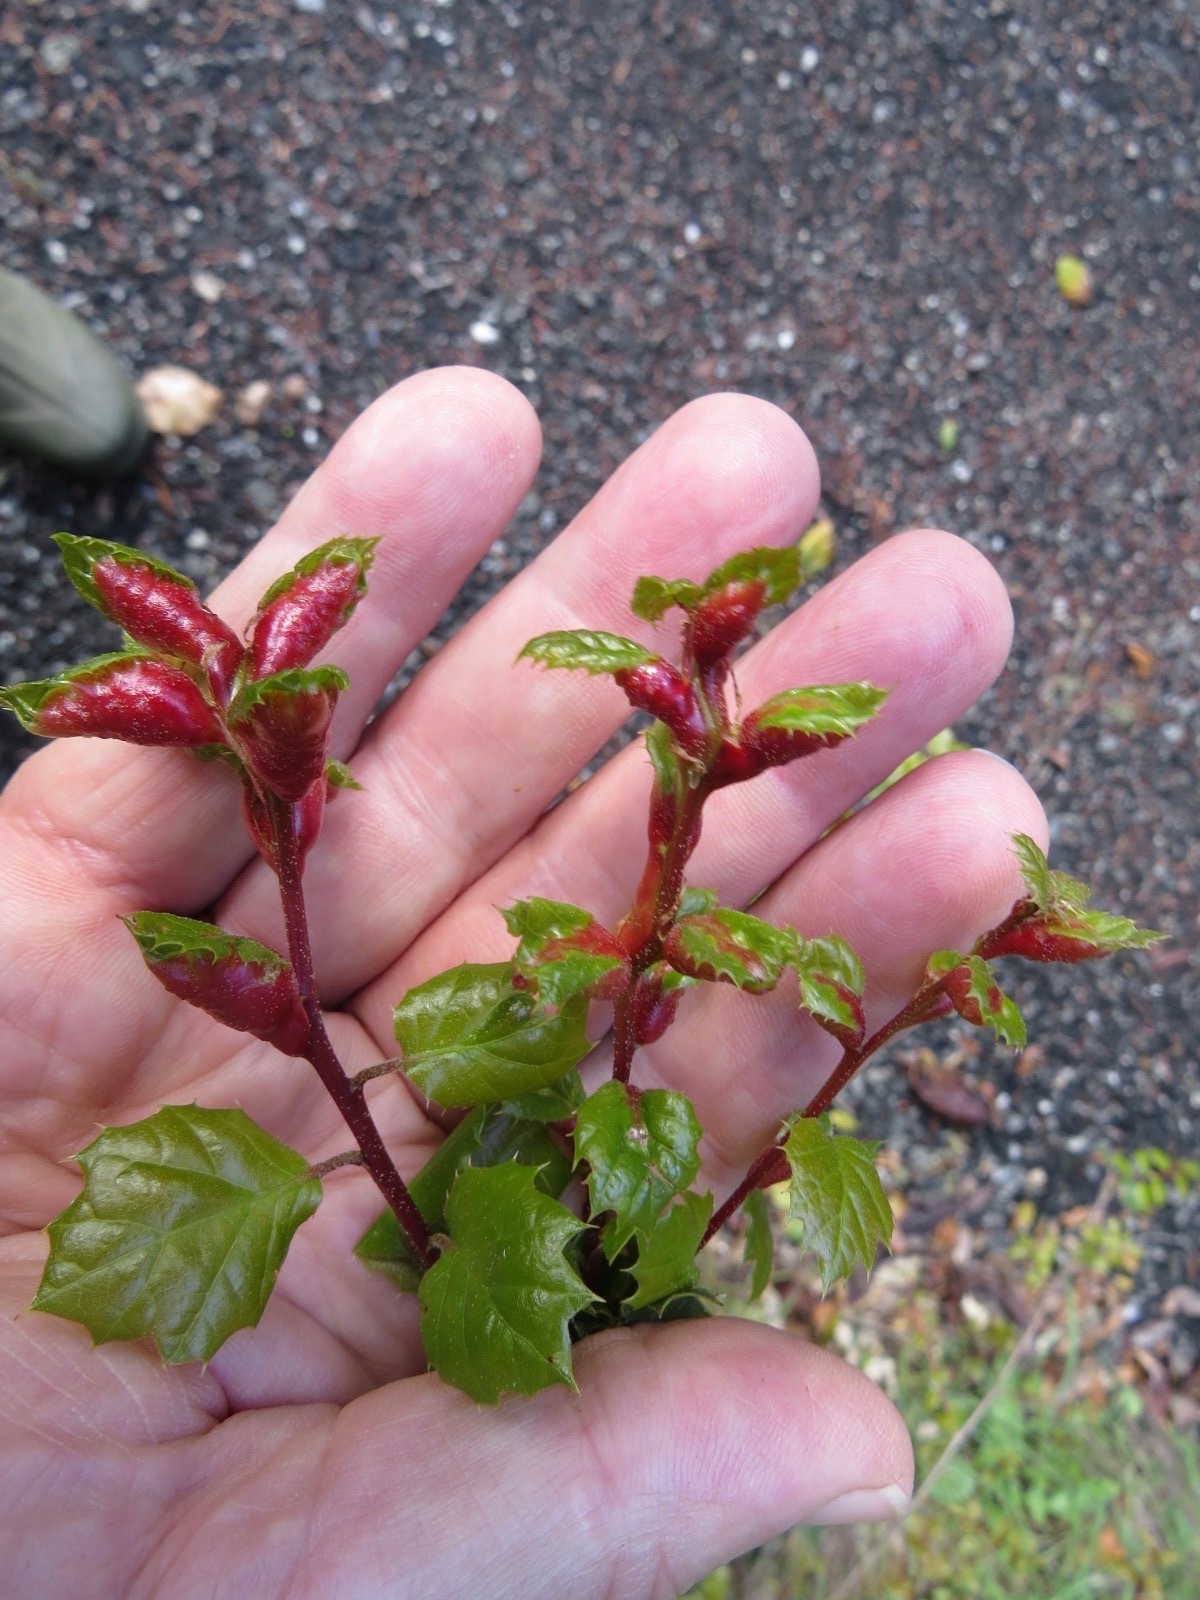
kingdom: Animalia
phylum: Arthropoda
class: Insecta
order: Hymenoptera
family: Cynipidae
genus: Melikaiella
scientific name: Melikaiella
